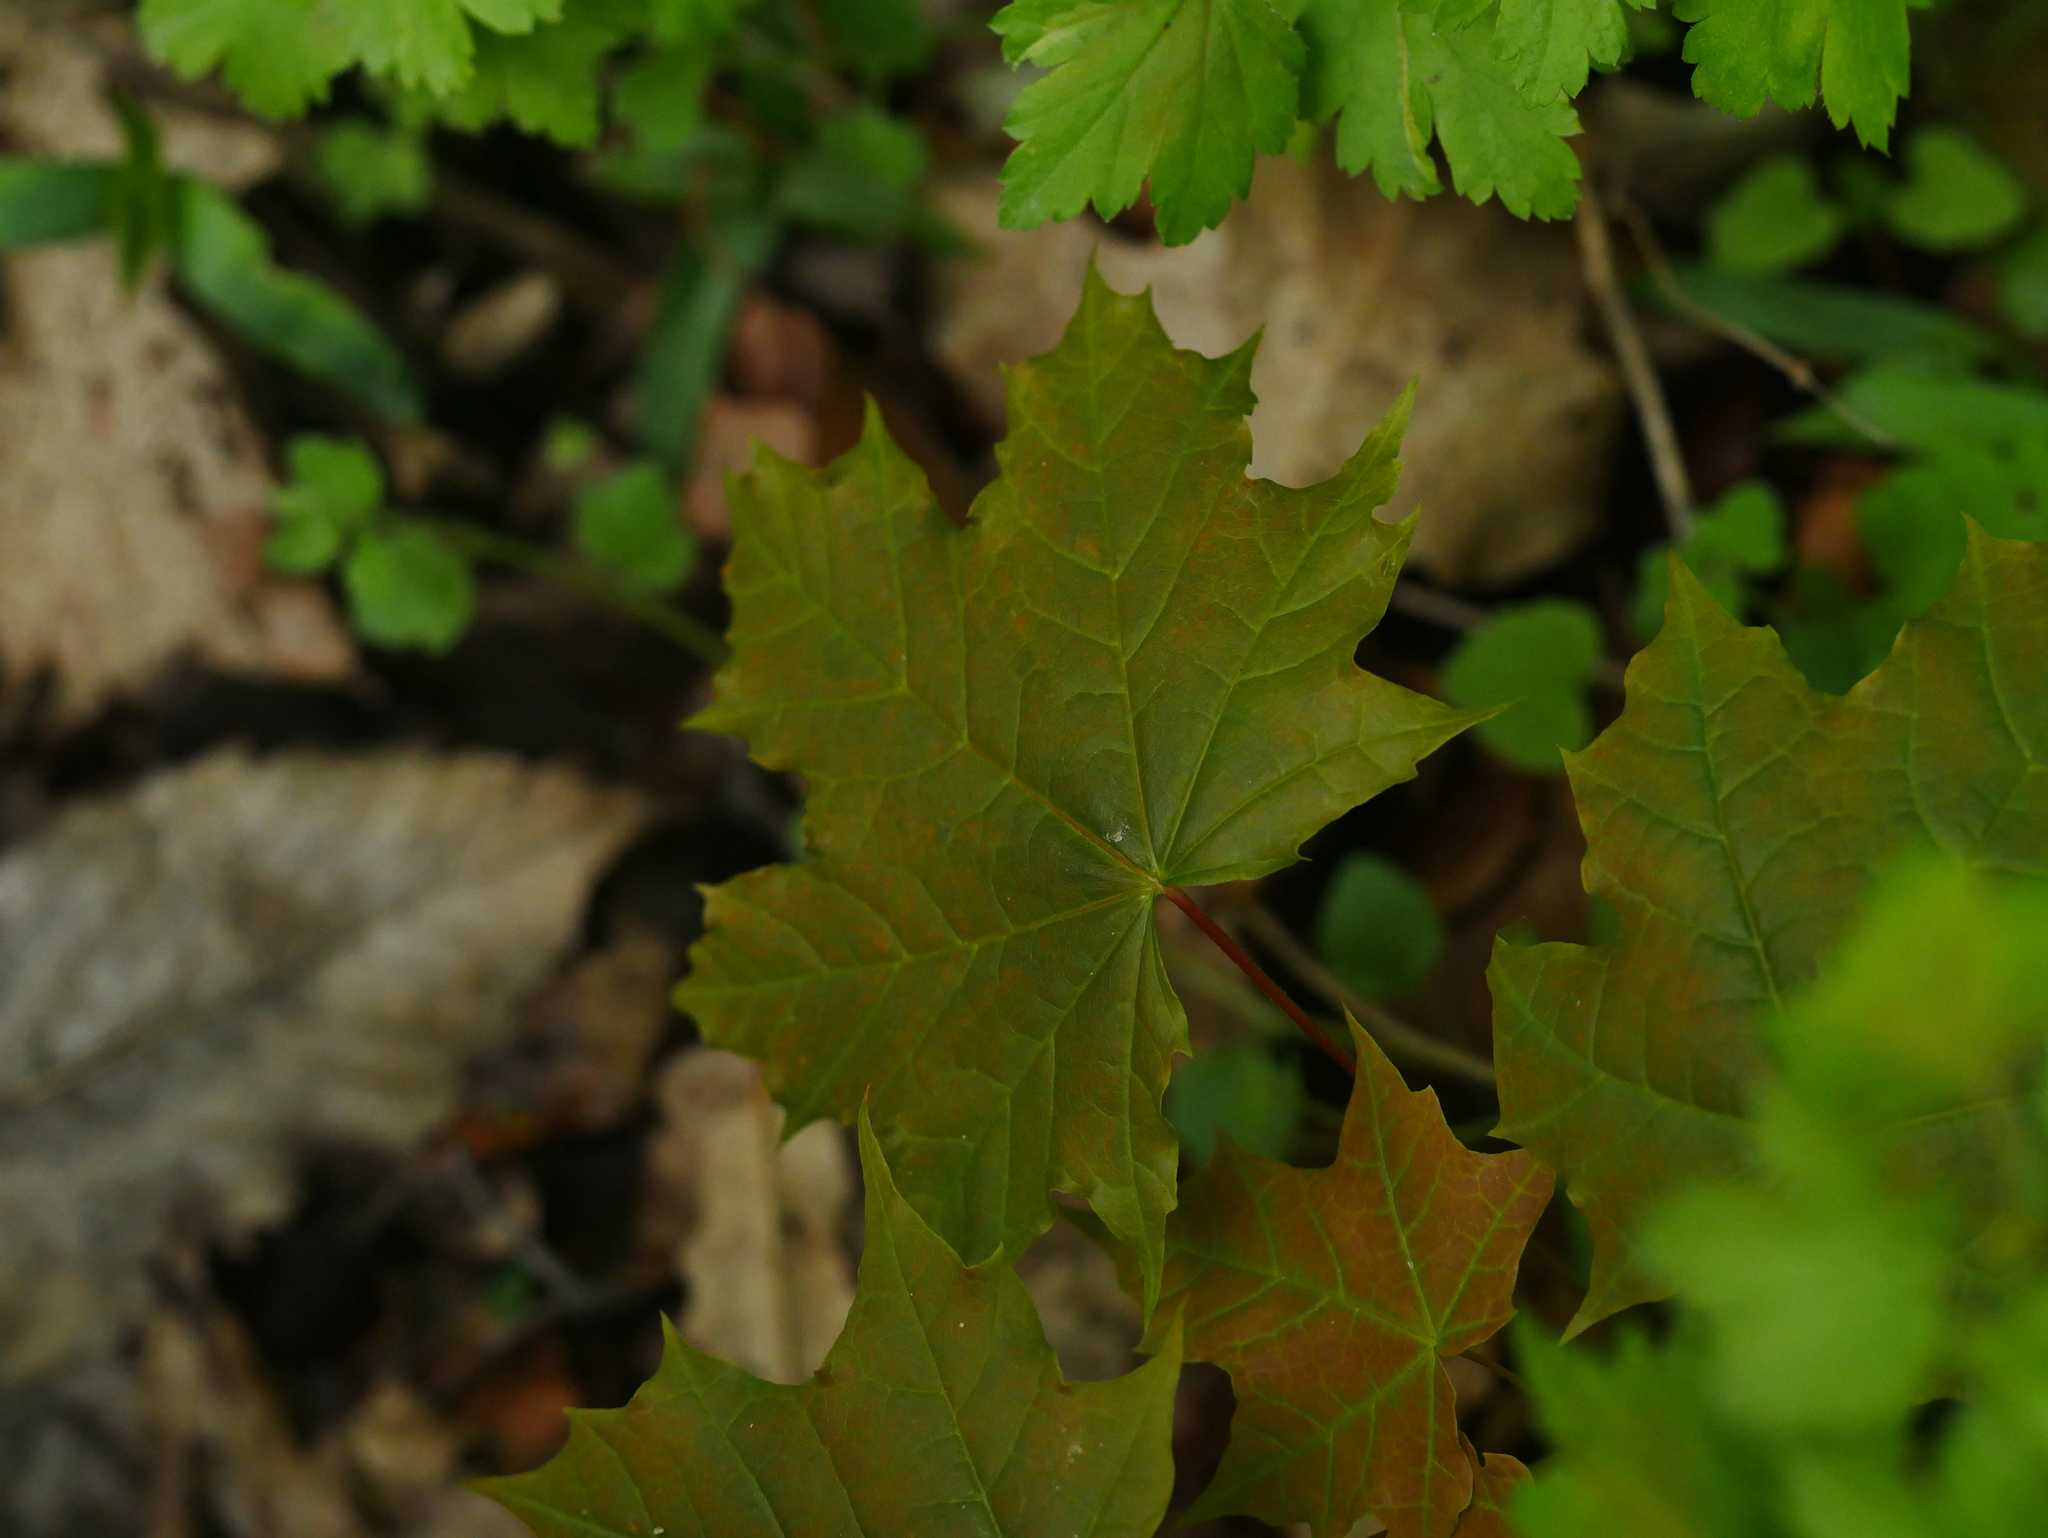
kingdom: Plantae
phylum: Tracheophyta
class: Magnoliopsida
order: Sapindales
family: Sapindaceae
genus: Acer
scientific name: Acer platanoides
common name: Norway maple
